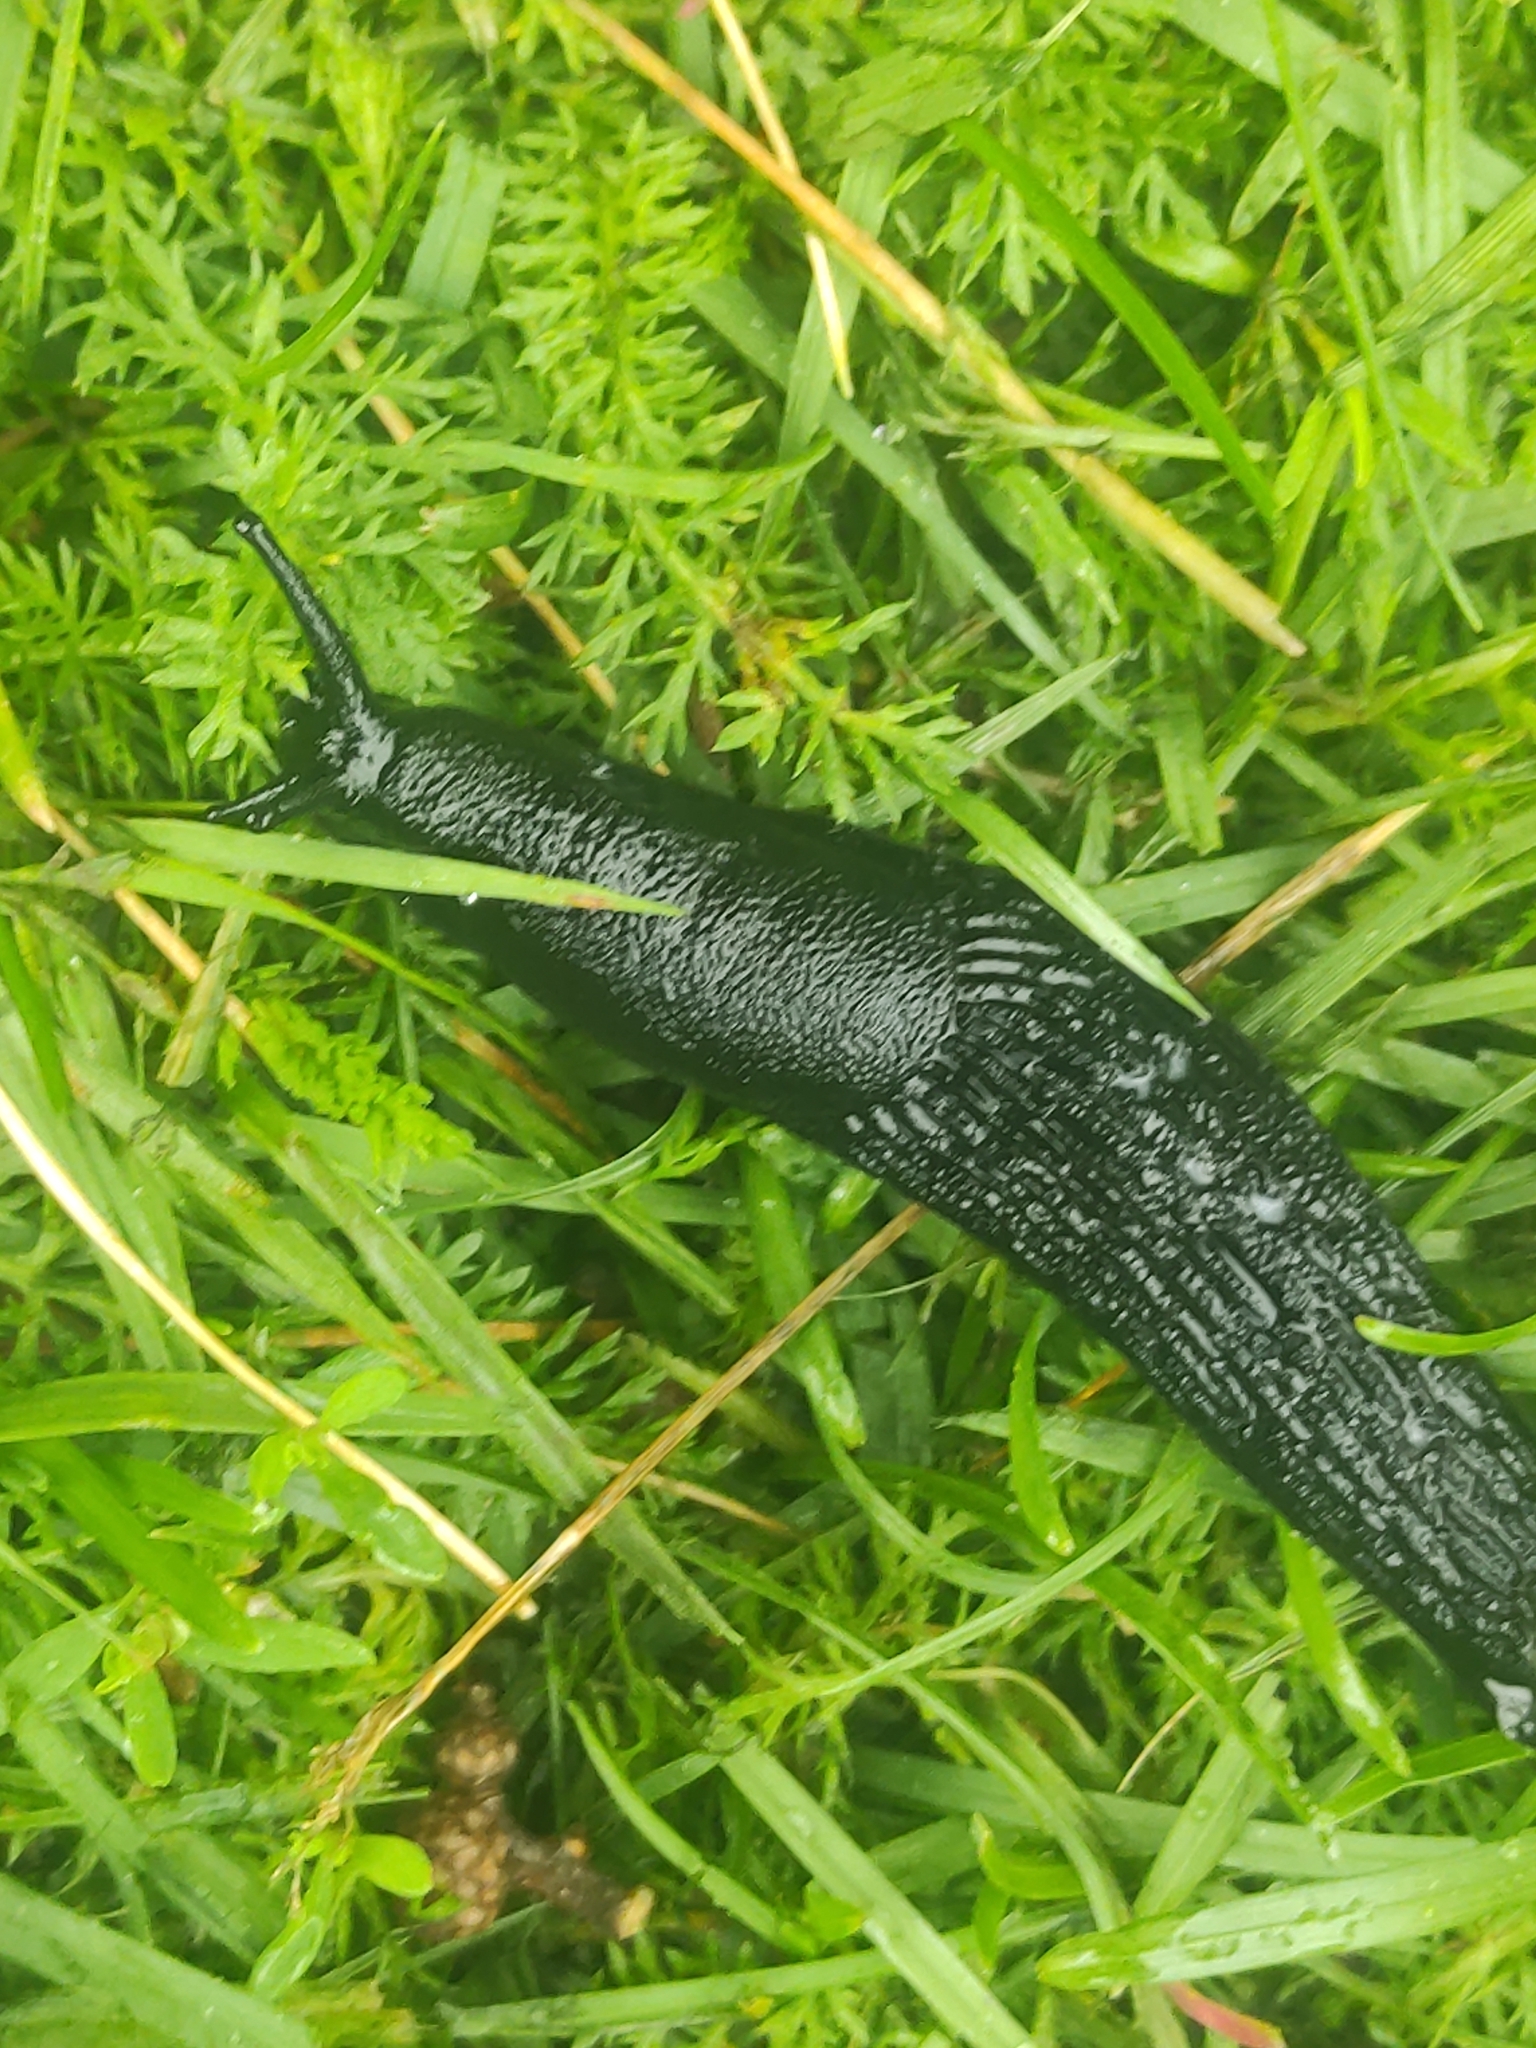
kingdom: Animalia
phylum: Mollusca
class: Gastropoda
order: Stylommatophora
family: Arionidae
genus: Arion
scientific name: Arion ater
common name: Black arion
